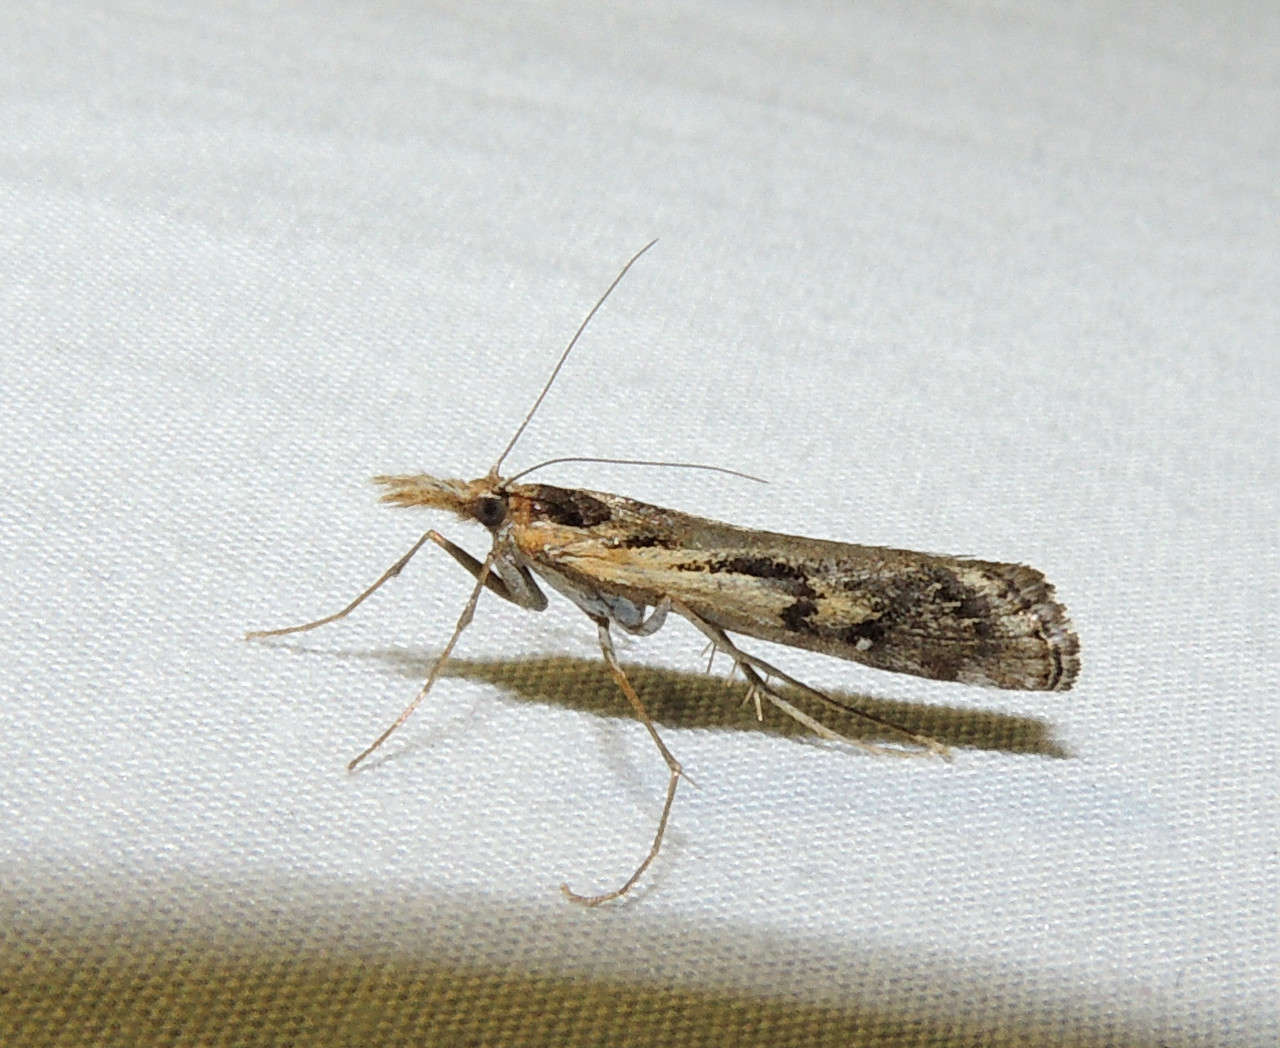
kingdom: Animalia
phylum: Arthropoda
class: Insecta
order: Lepidoptera
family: Crambidae
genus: Hednota
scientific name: Hednota pedionoma
